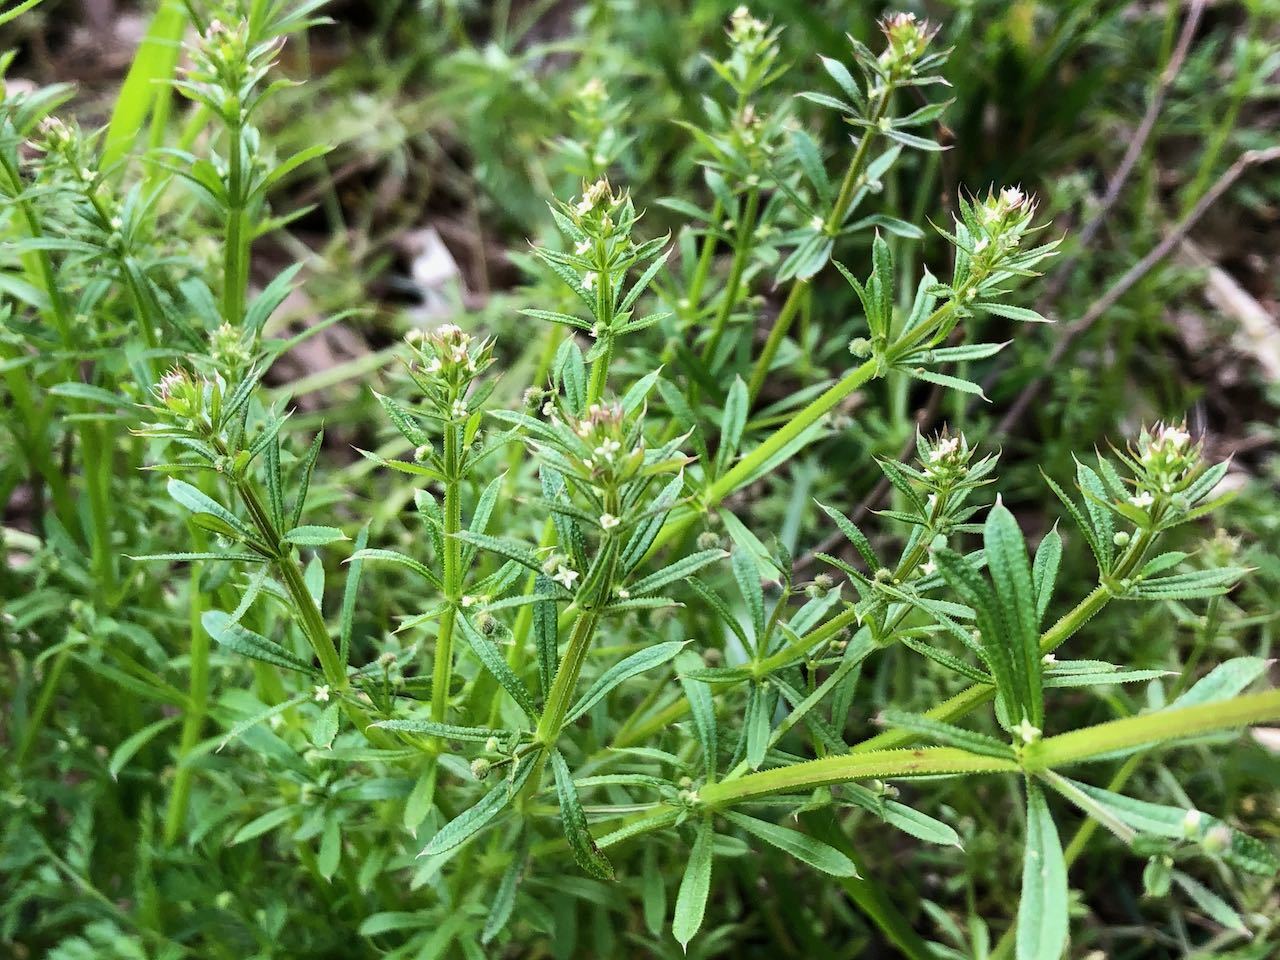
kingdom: Plantae
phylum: Tracheophyta
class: Magnoliopsida
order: Gentianales
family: Rubiaceae
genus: Galium
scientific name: Galium
